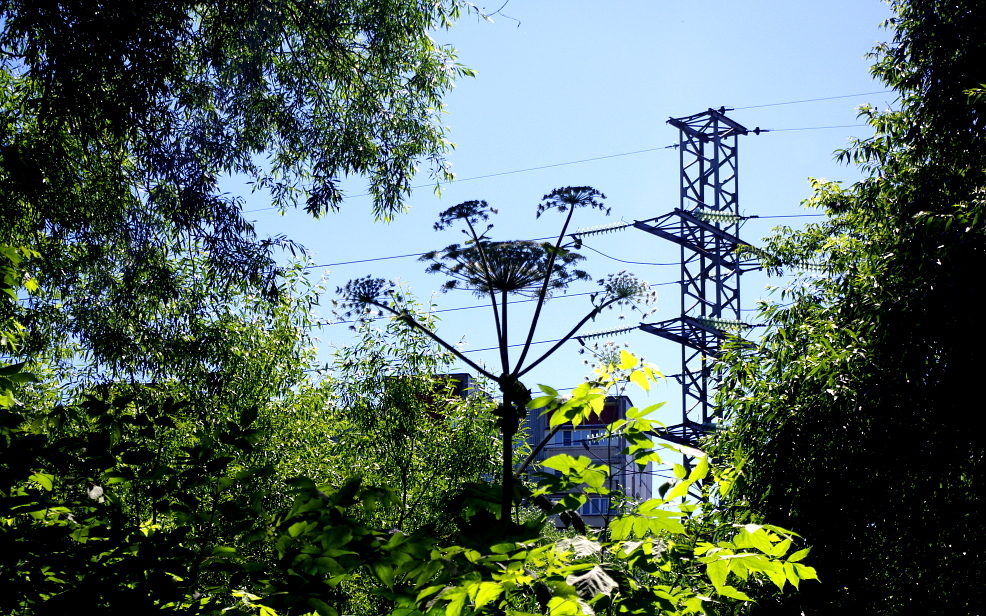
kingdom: Plantae
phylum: Tracheophyta
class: Magnoliopsida
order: Apiales
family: Apiaceae
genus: Heracleum
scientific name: Heracleum sosnowskyi
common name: Sosnowsky's hogweed
